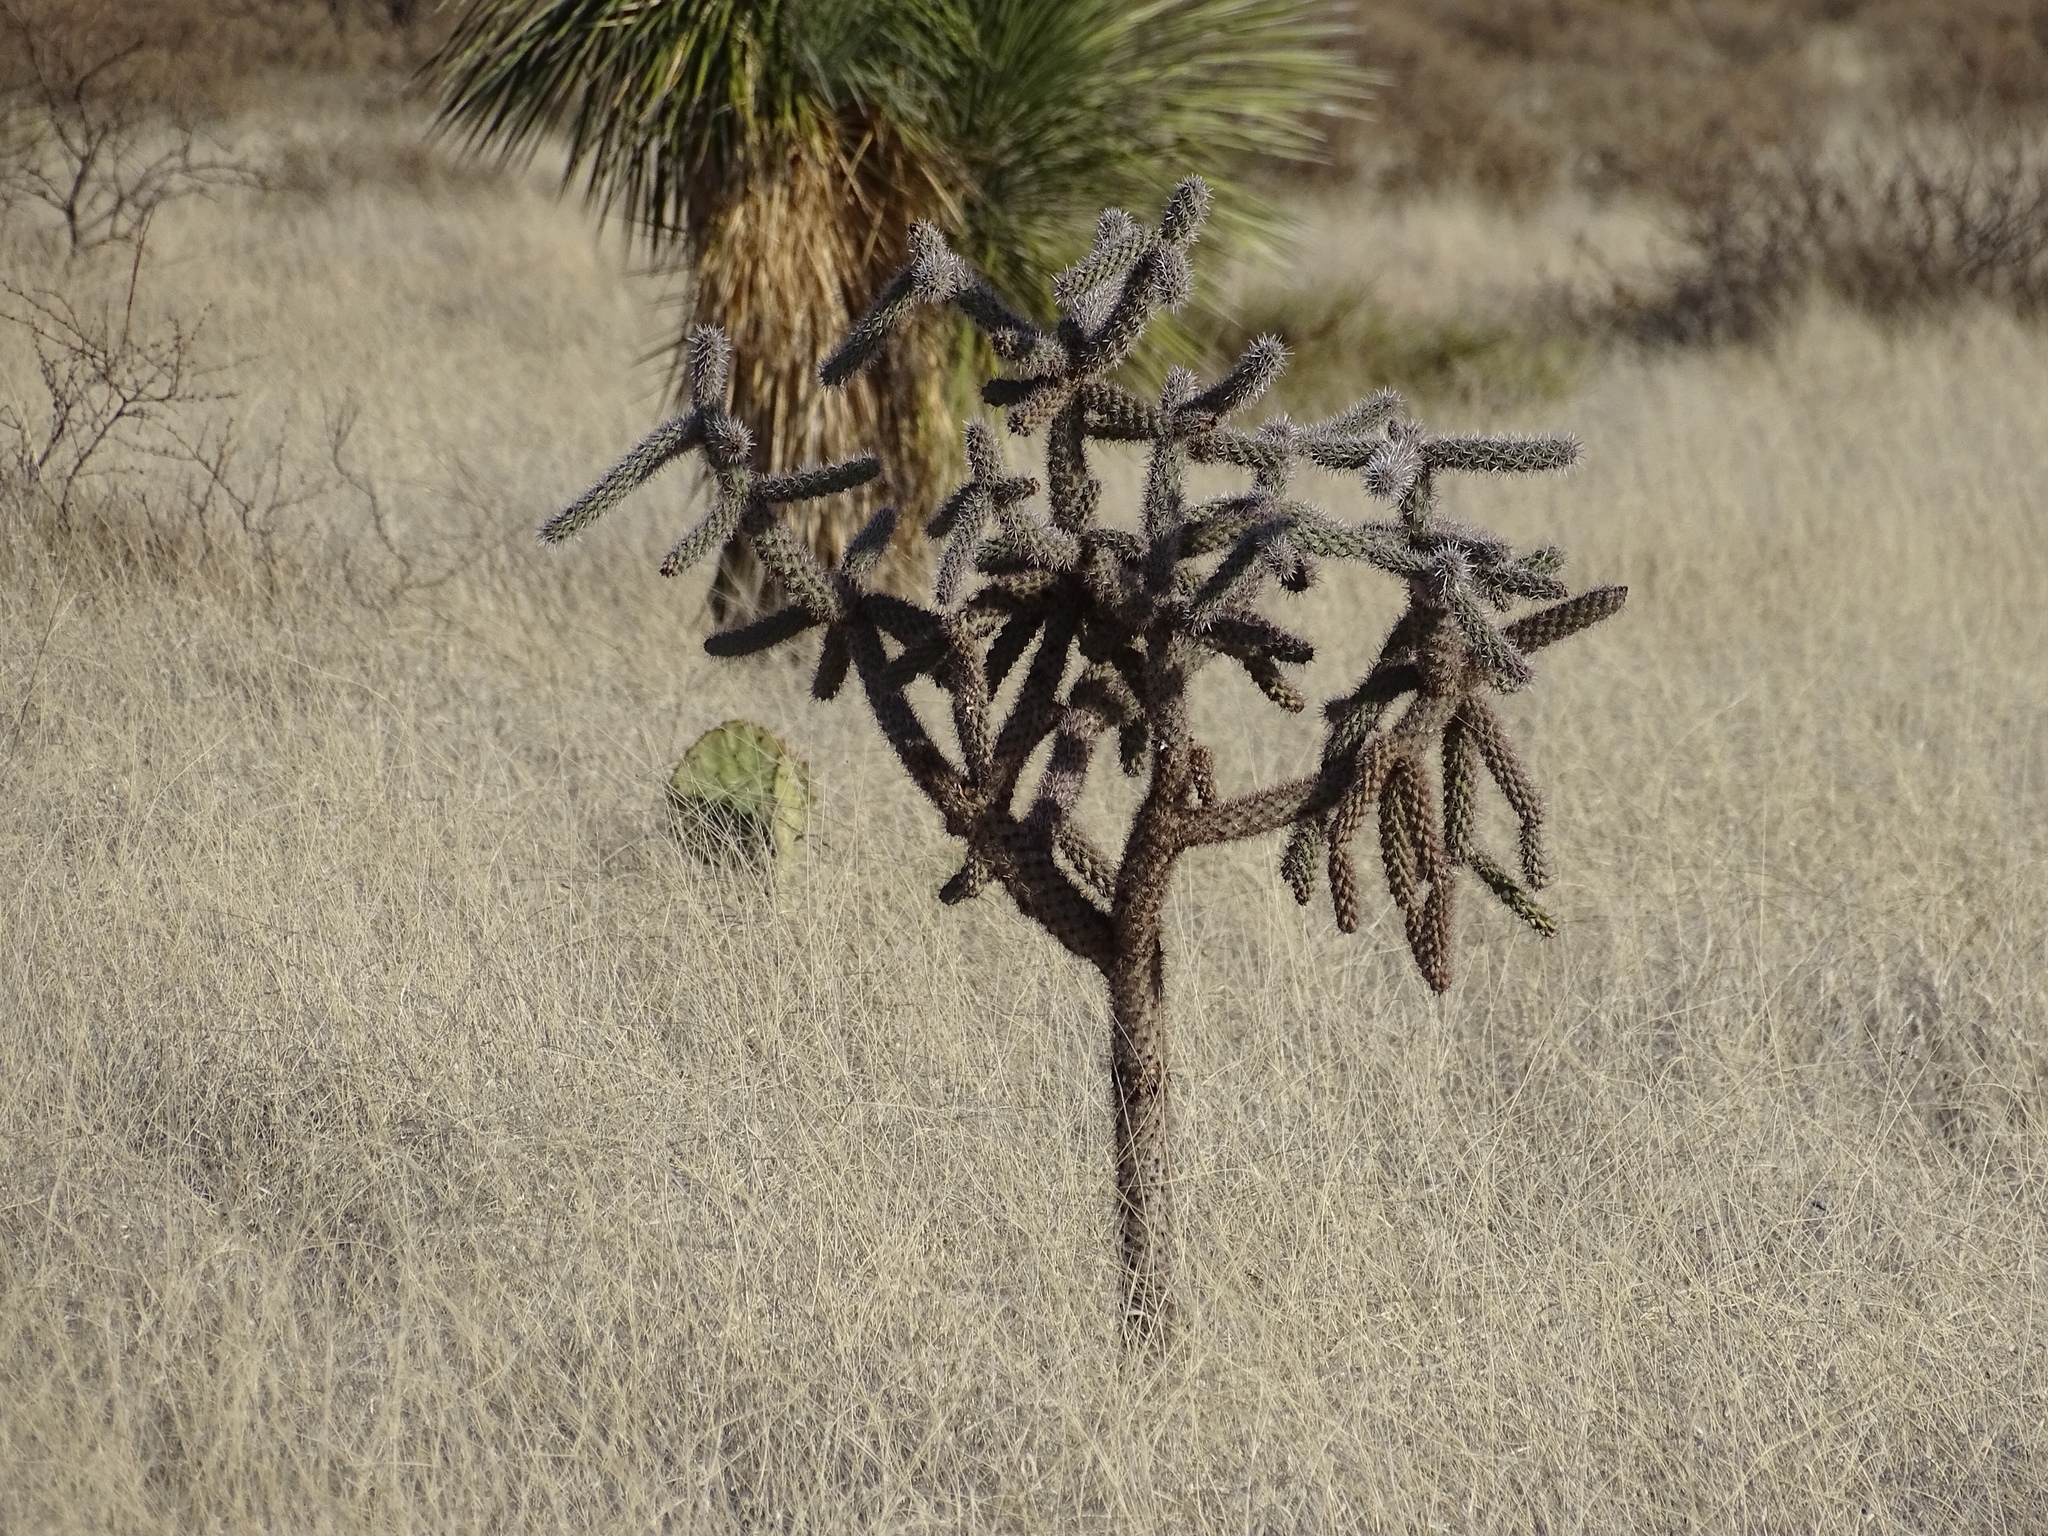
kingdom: Plantae
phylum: Tracheophyta
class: Magnoliopsida
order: Caryophyllales
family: Cactaceae
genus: Cylindropuntia
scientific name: Cylindropuntia imbricata
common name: Candelabrum cactus
